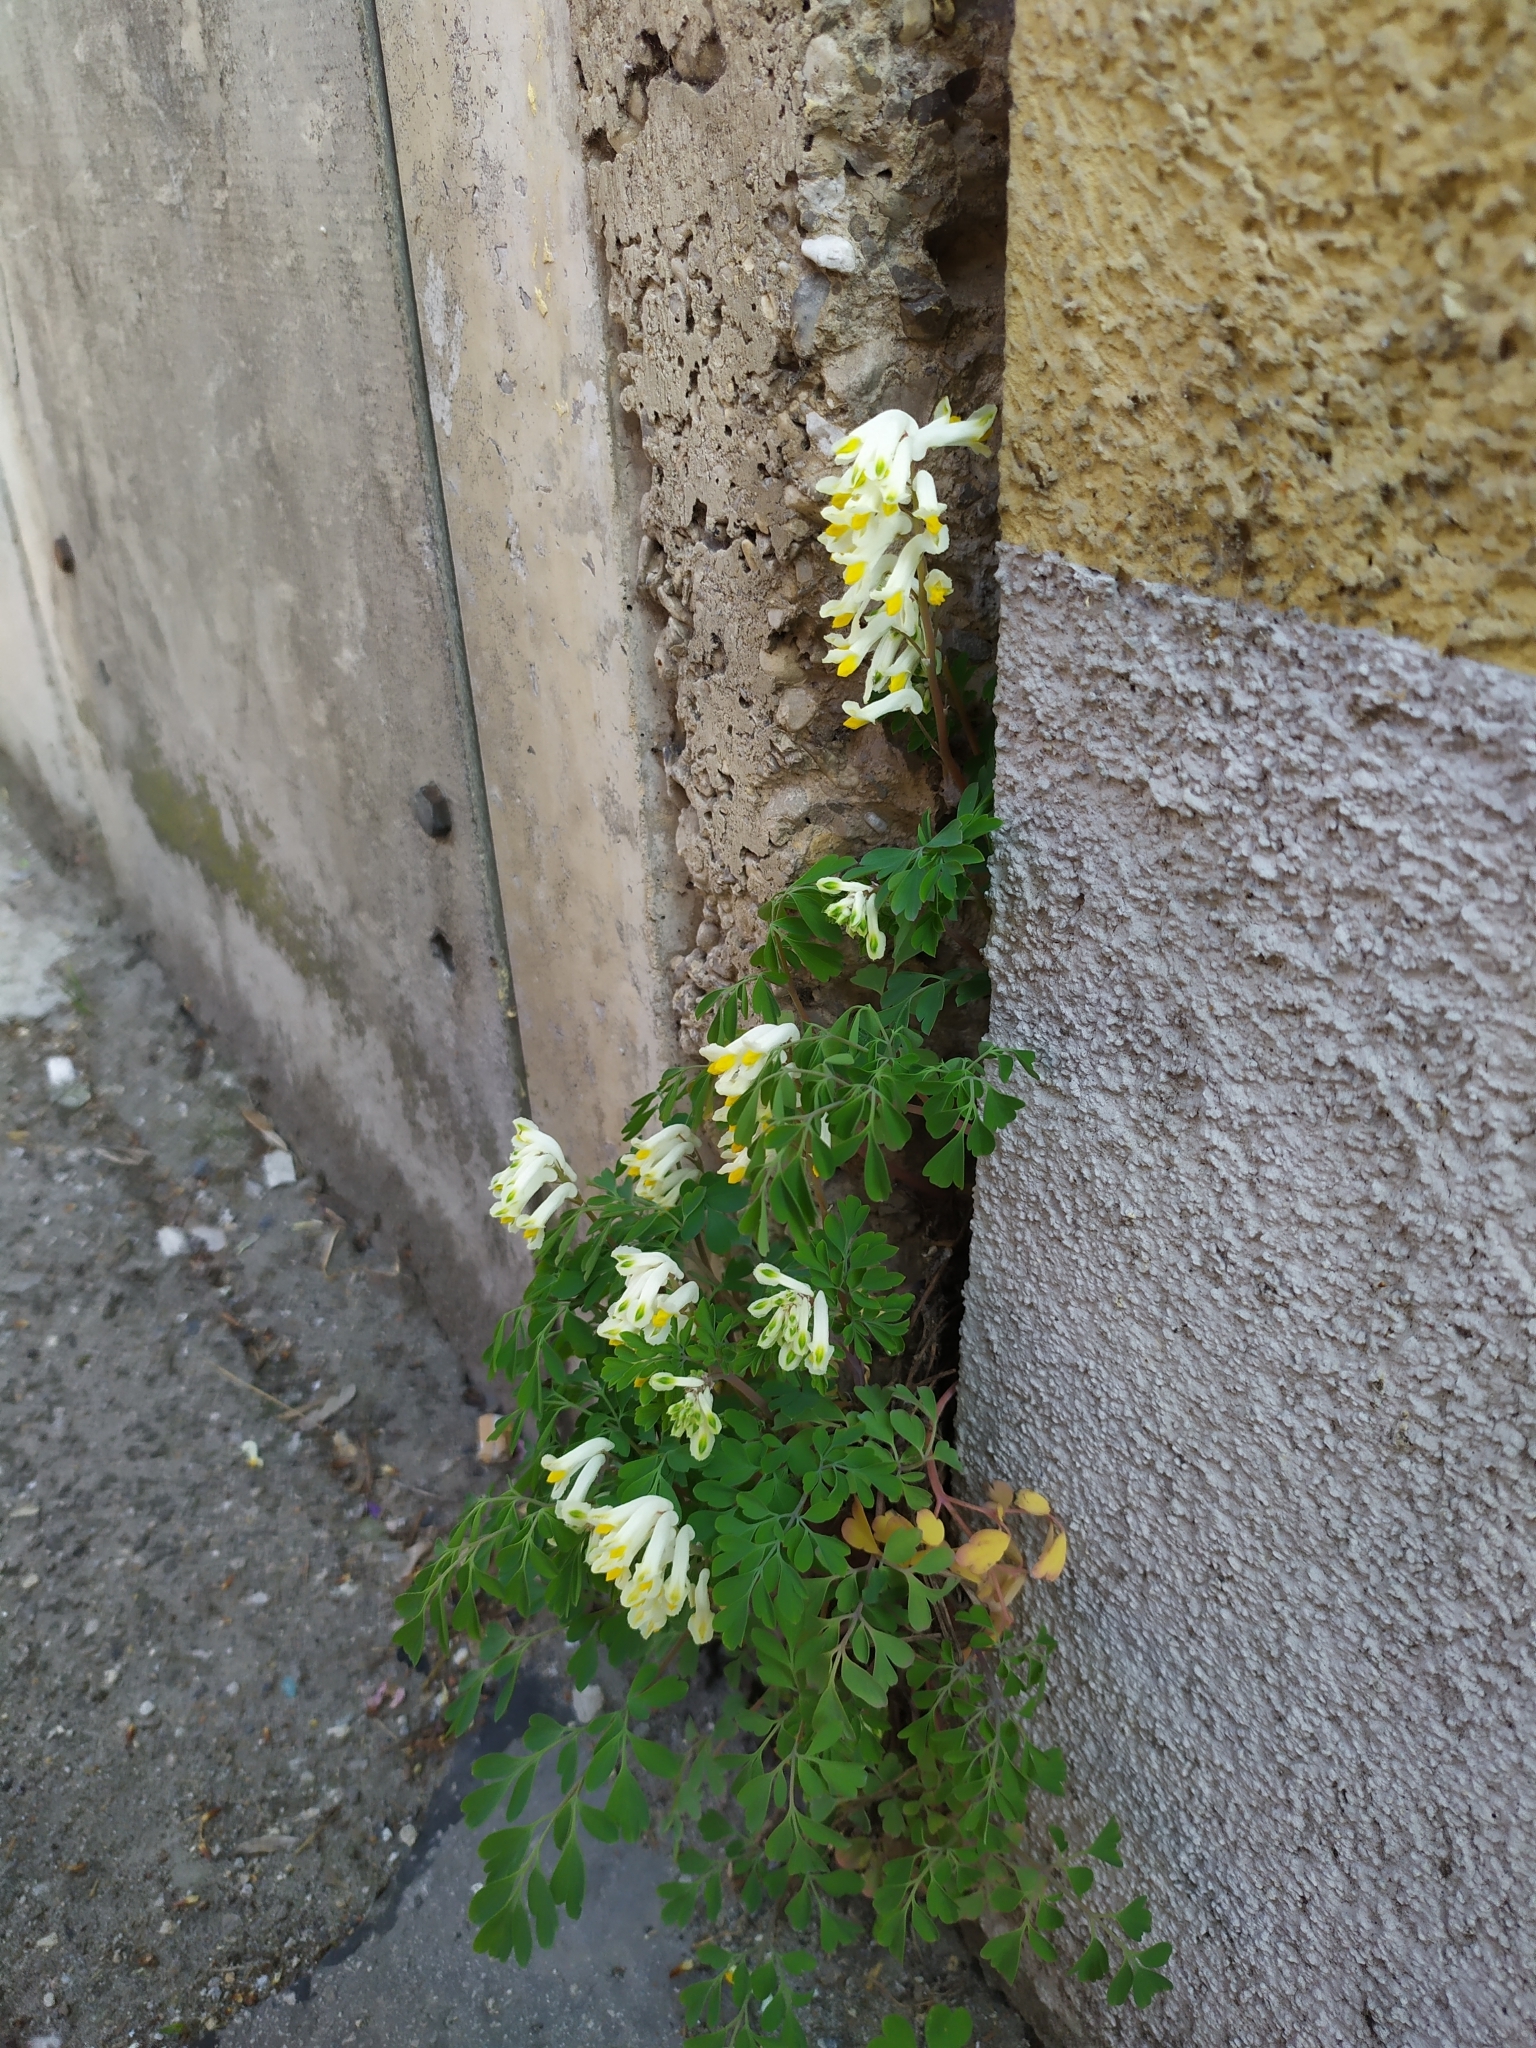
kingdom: Plantae
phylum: Tracheophyta
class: Magnoliopsida
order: Ranunculales
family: Papaveraceae
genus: Pseudofumaria
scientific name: Pseudofumaria alba
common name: Pale corydalis
